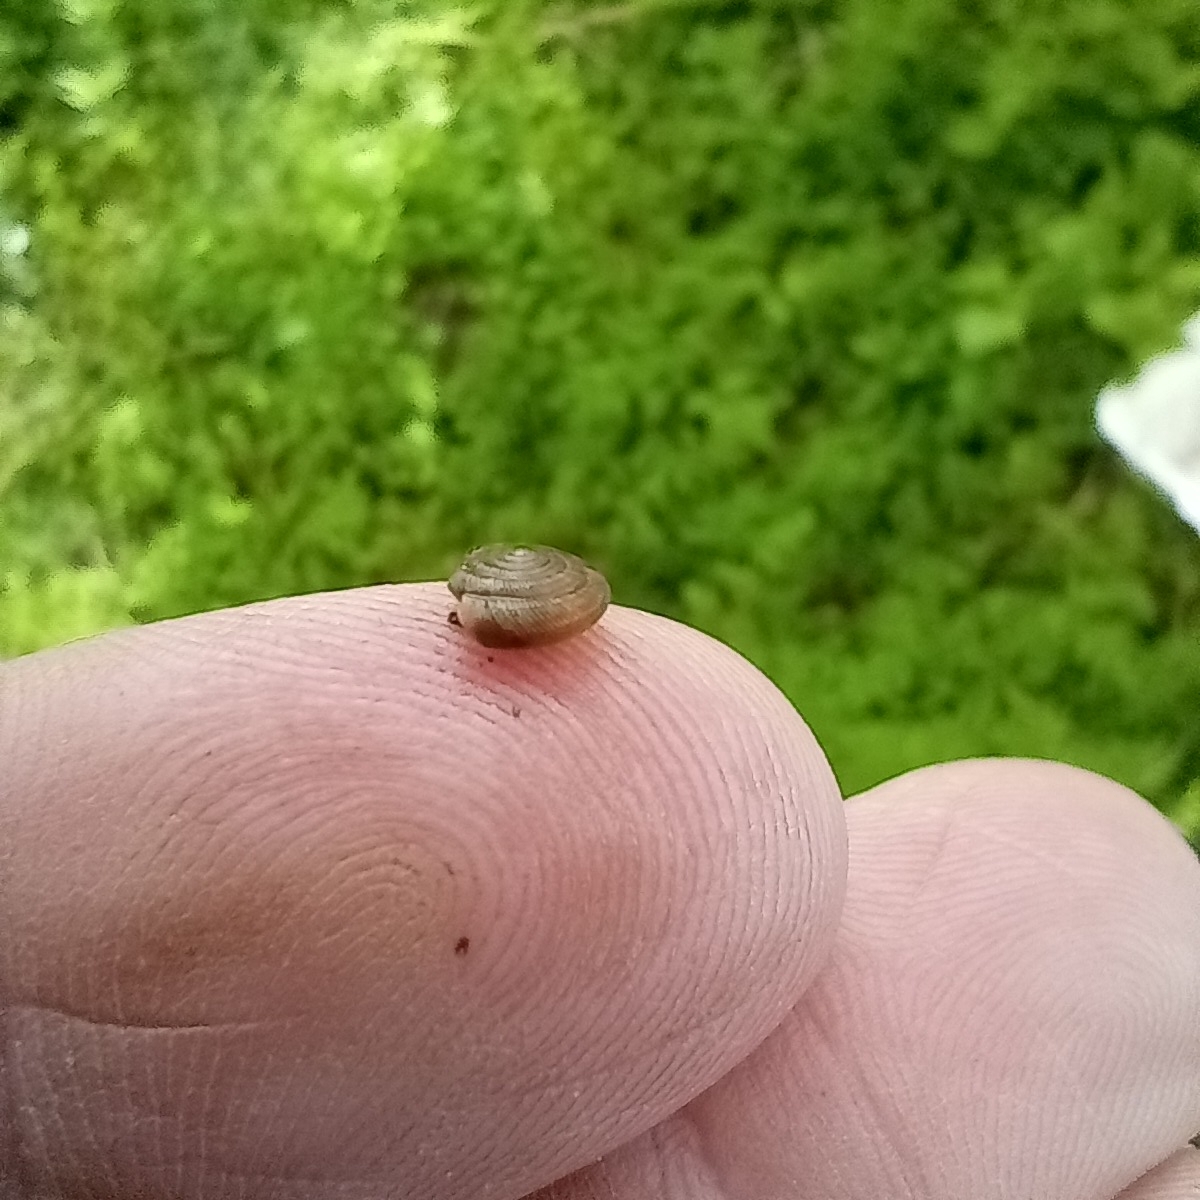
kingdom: Animalia
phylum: Mollusca
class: Gastropoda
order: Stylommatophora
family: Discidae
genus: Discus
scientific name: Discus rotundatus
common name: Rounded snail
